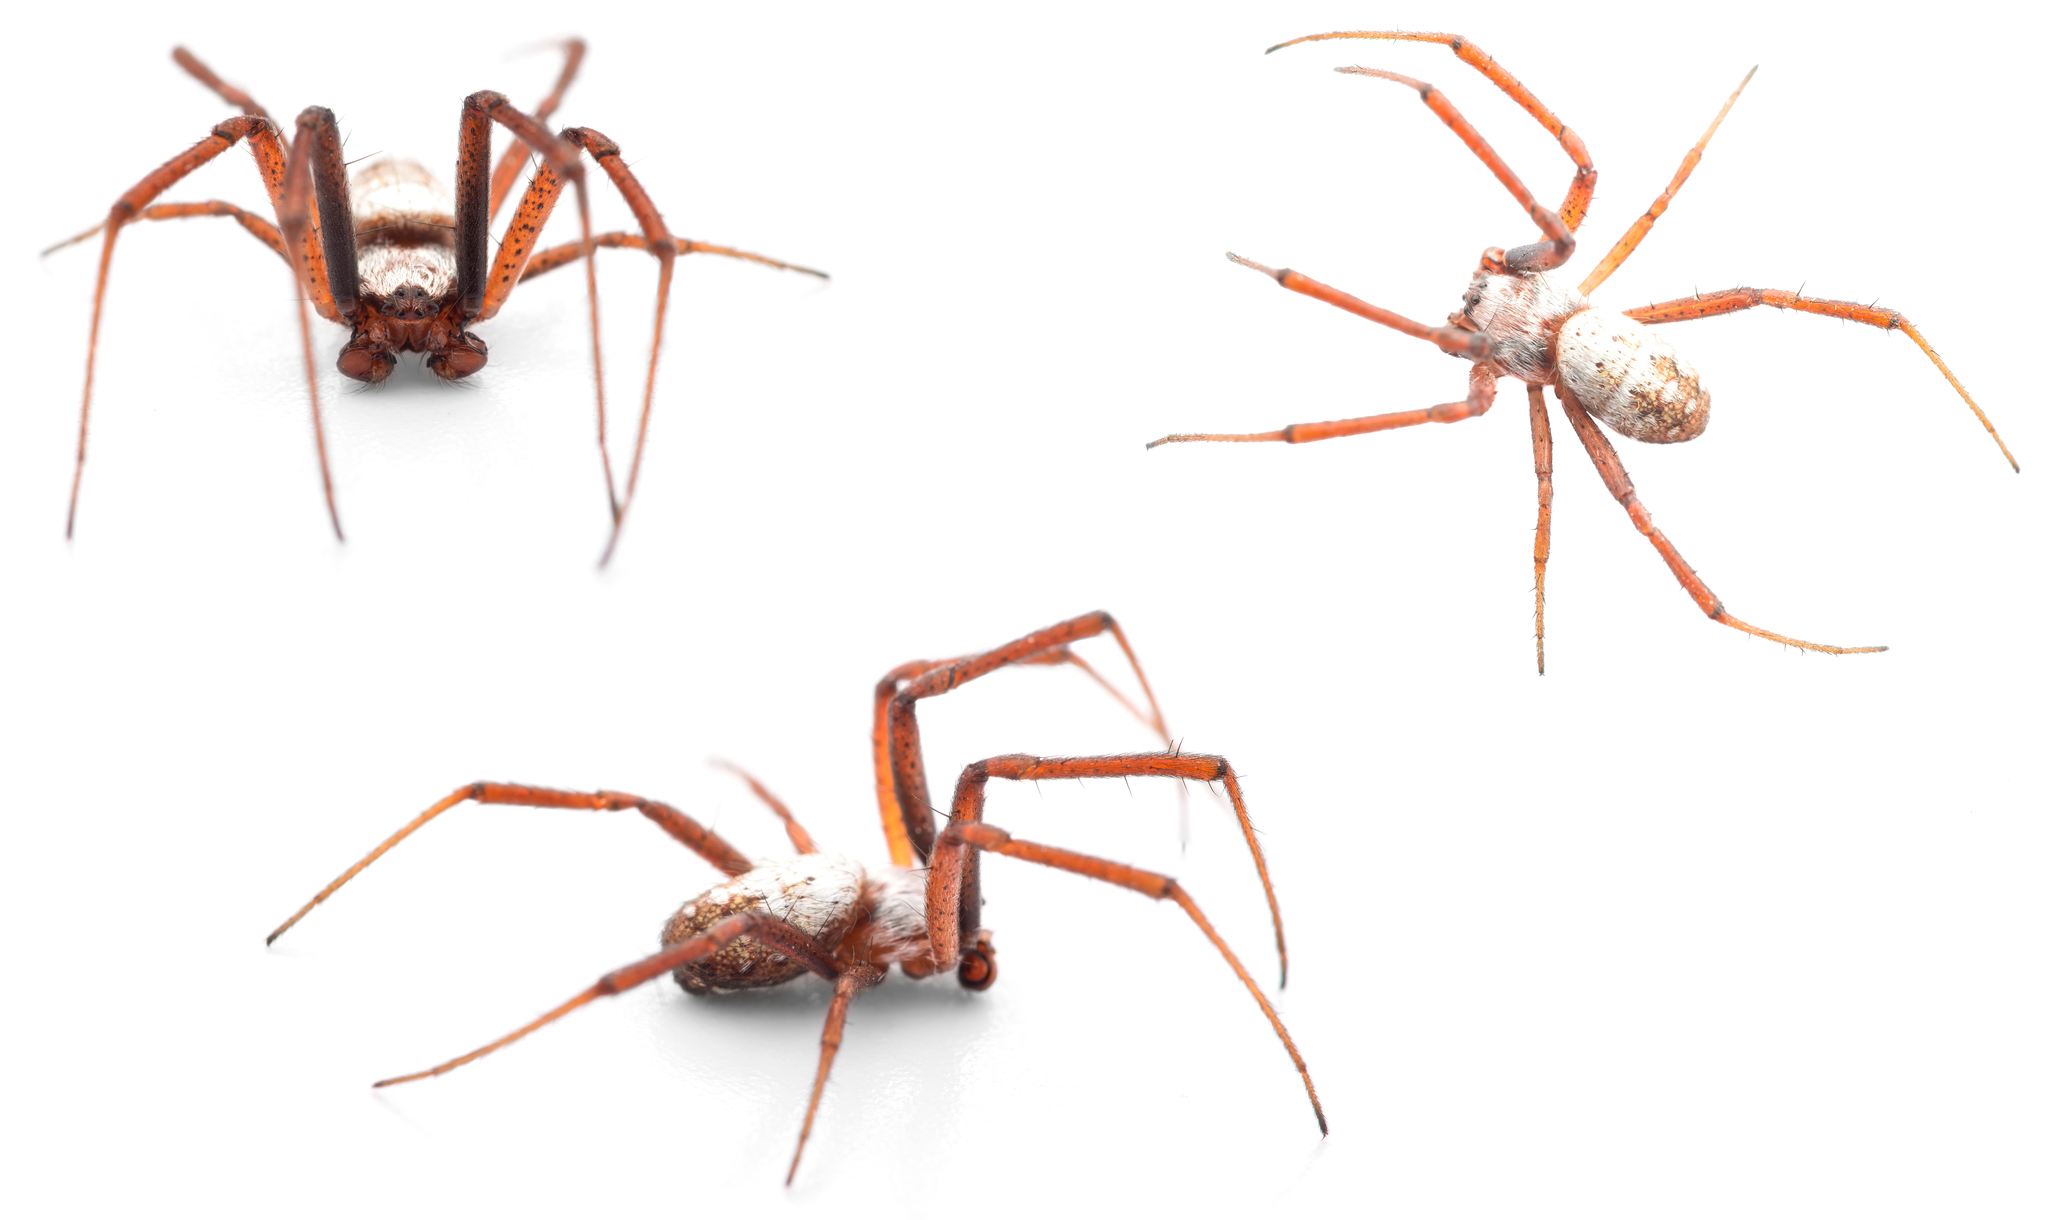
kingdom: Animalia
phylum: Arthropoda
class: Arachnida
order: Araneae
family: Araneidae
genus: Argiope
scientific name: Argiope trifasciata
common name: Banded garden spider
